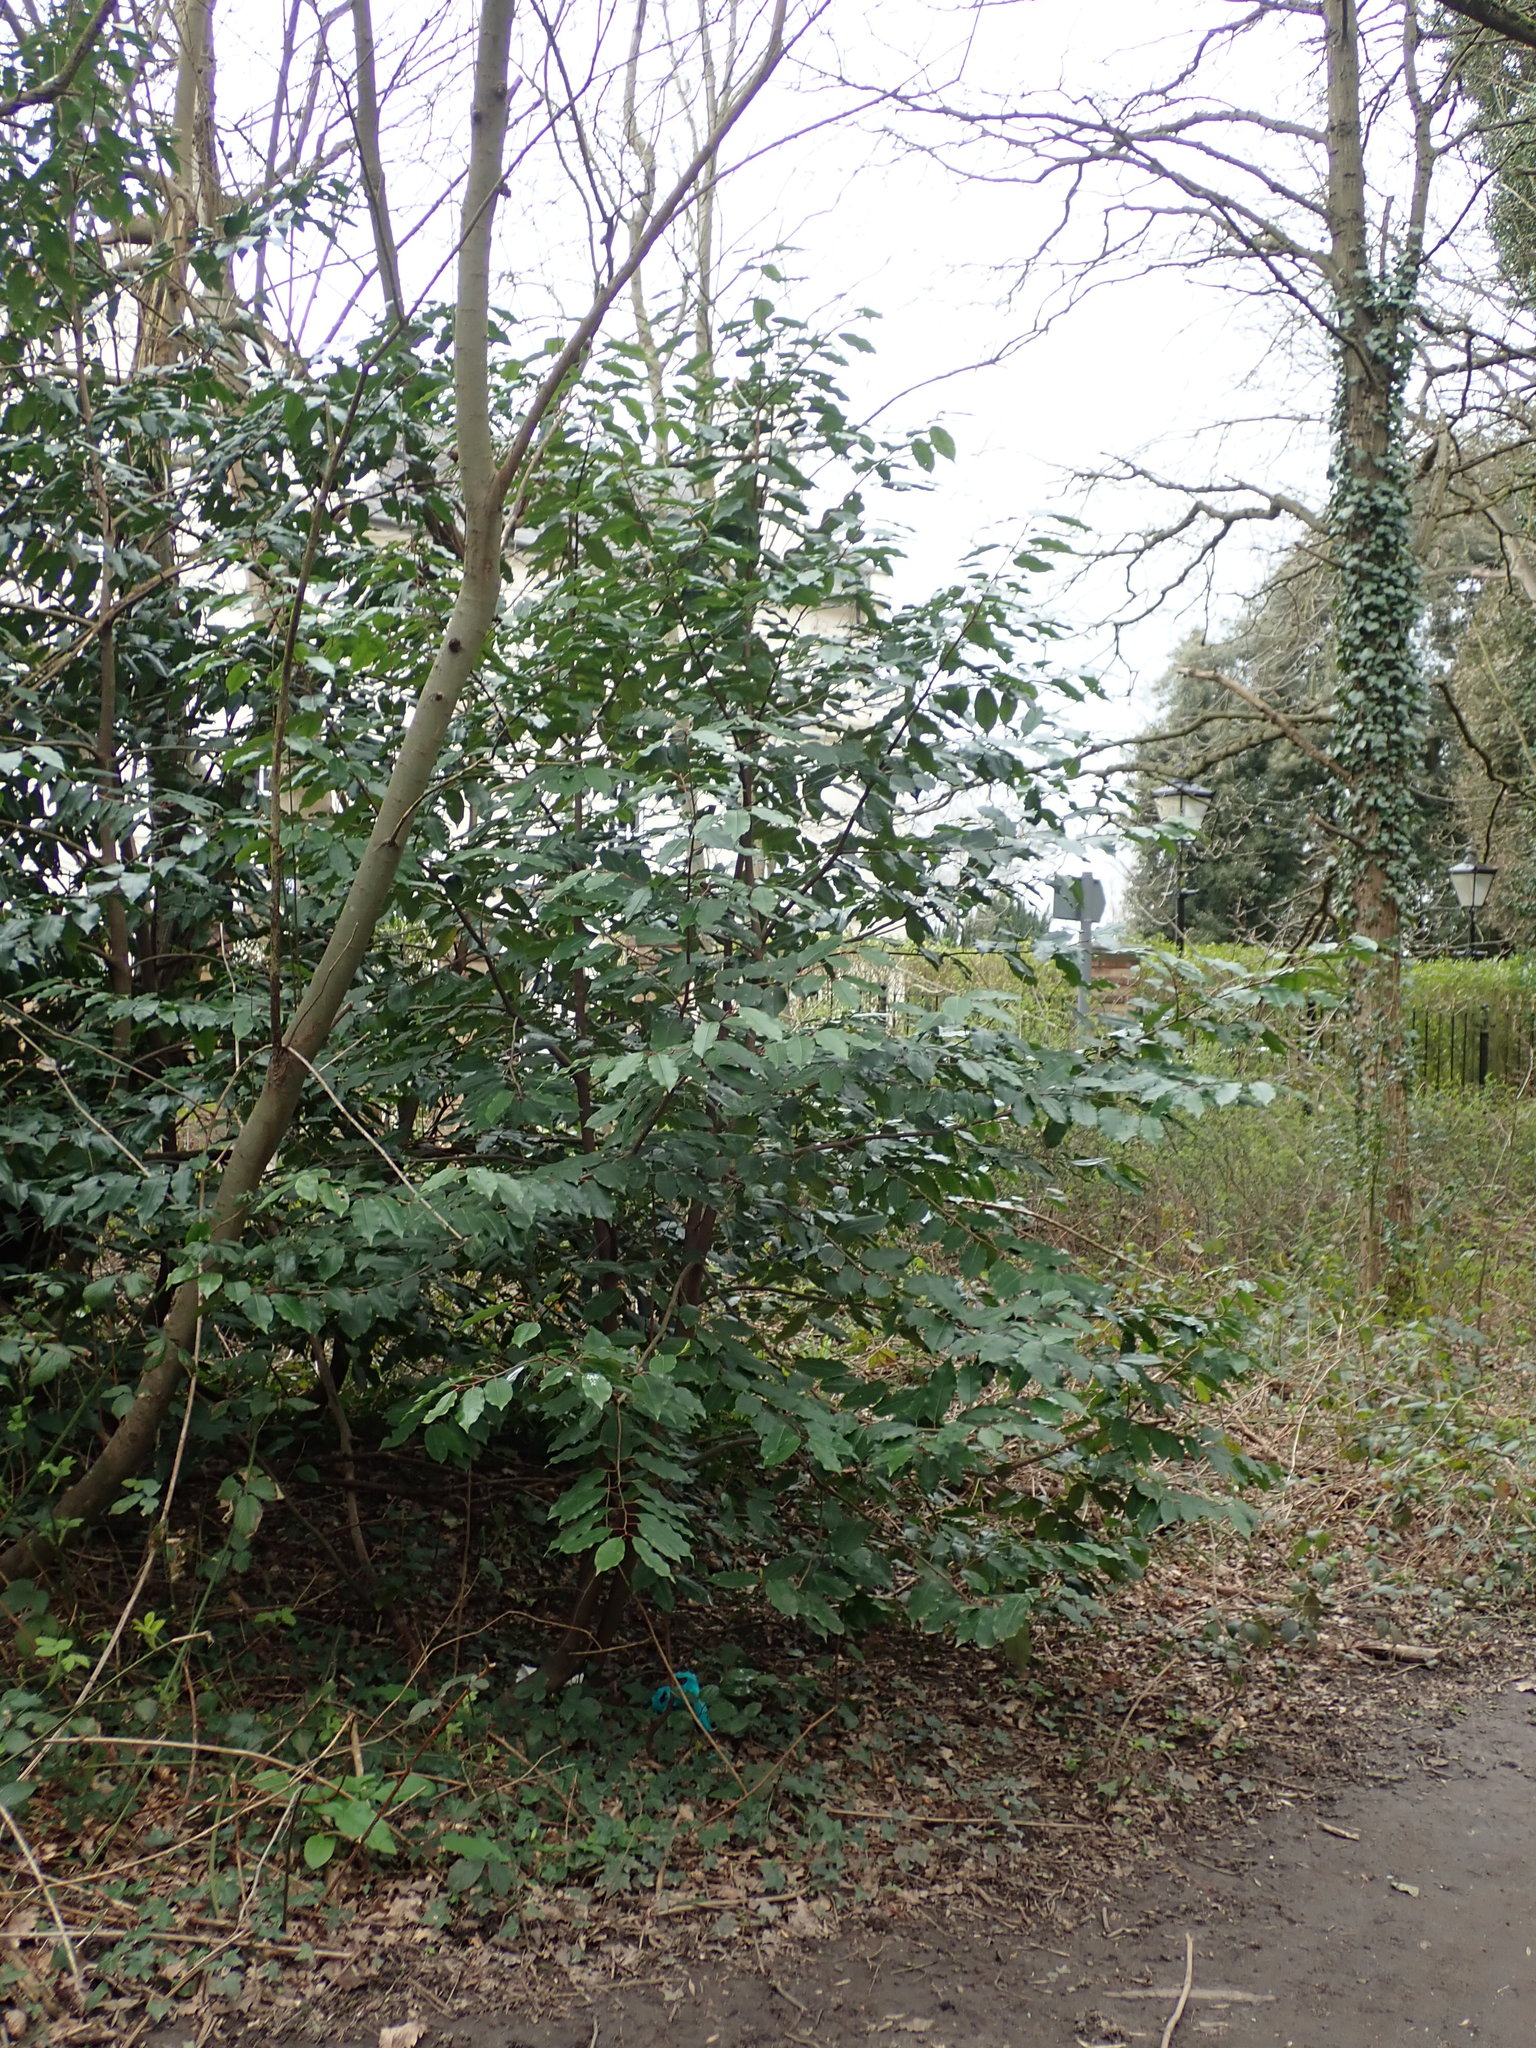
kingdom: Plantae
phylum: Tracheophyta
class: Magnoliopsida
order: Rosales
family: Rosaceae
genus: Prunus
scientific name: Prunus lusitanica
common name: Portugal laurel
